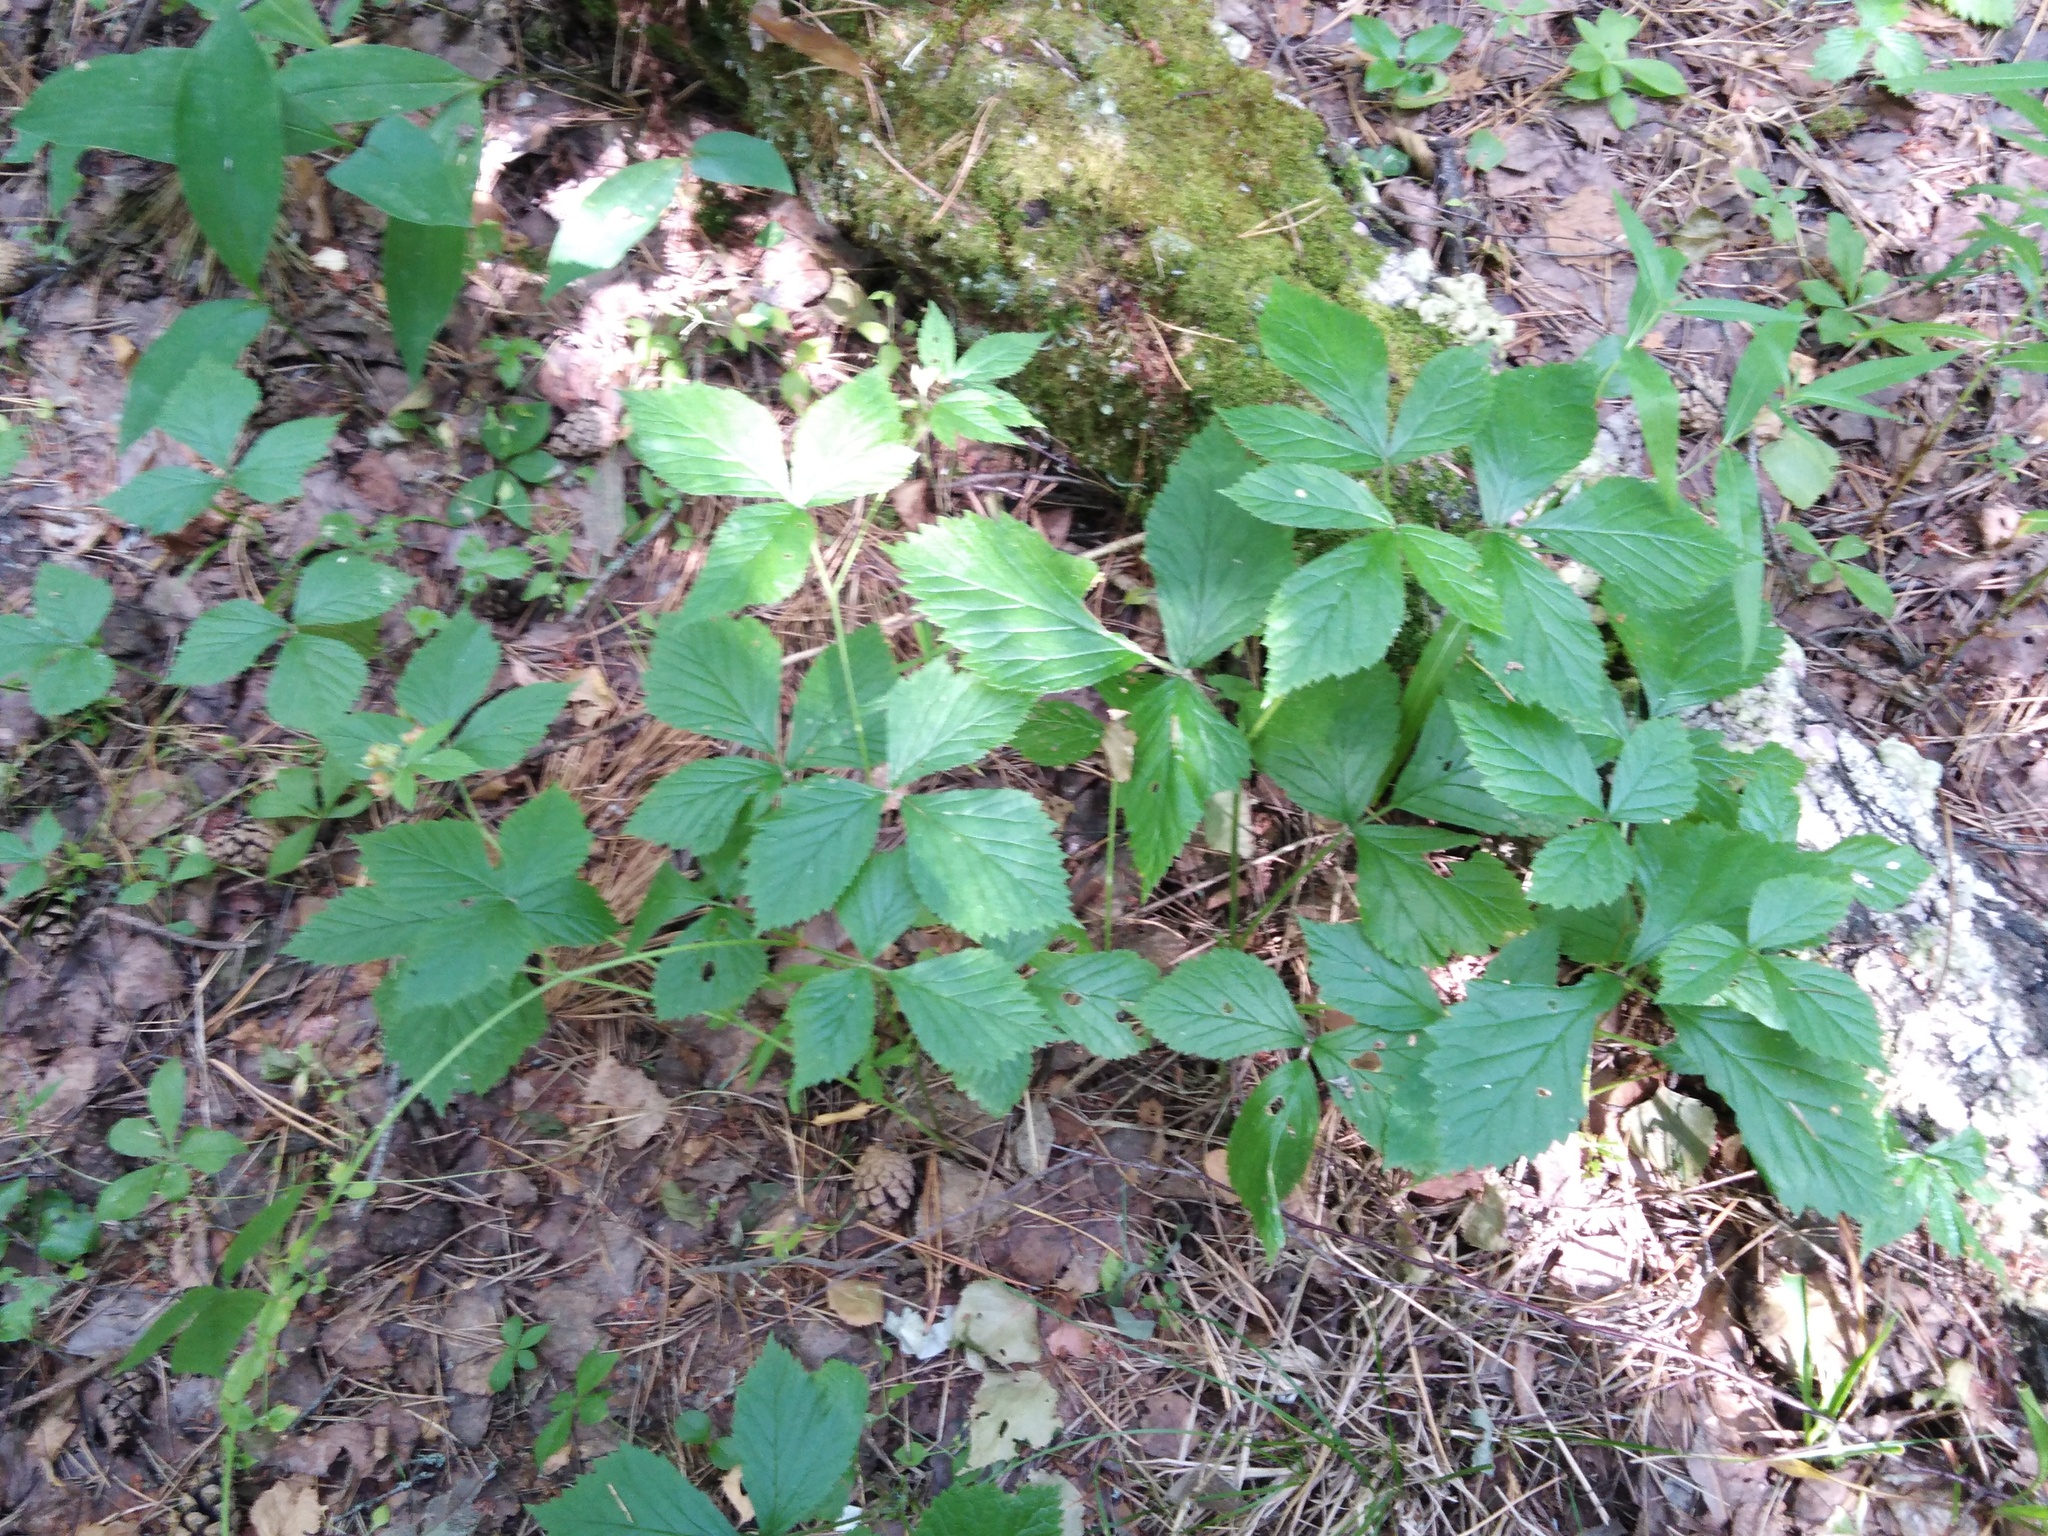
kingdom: Plantae
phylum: Tracheophyta
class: Magnoliopsida
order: Rosales
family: Rosaceae
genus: Rubus
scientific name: Rubus saxatilis
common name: Stone bramble
